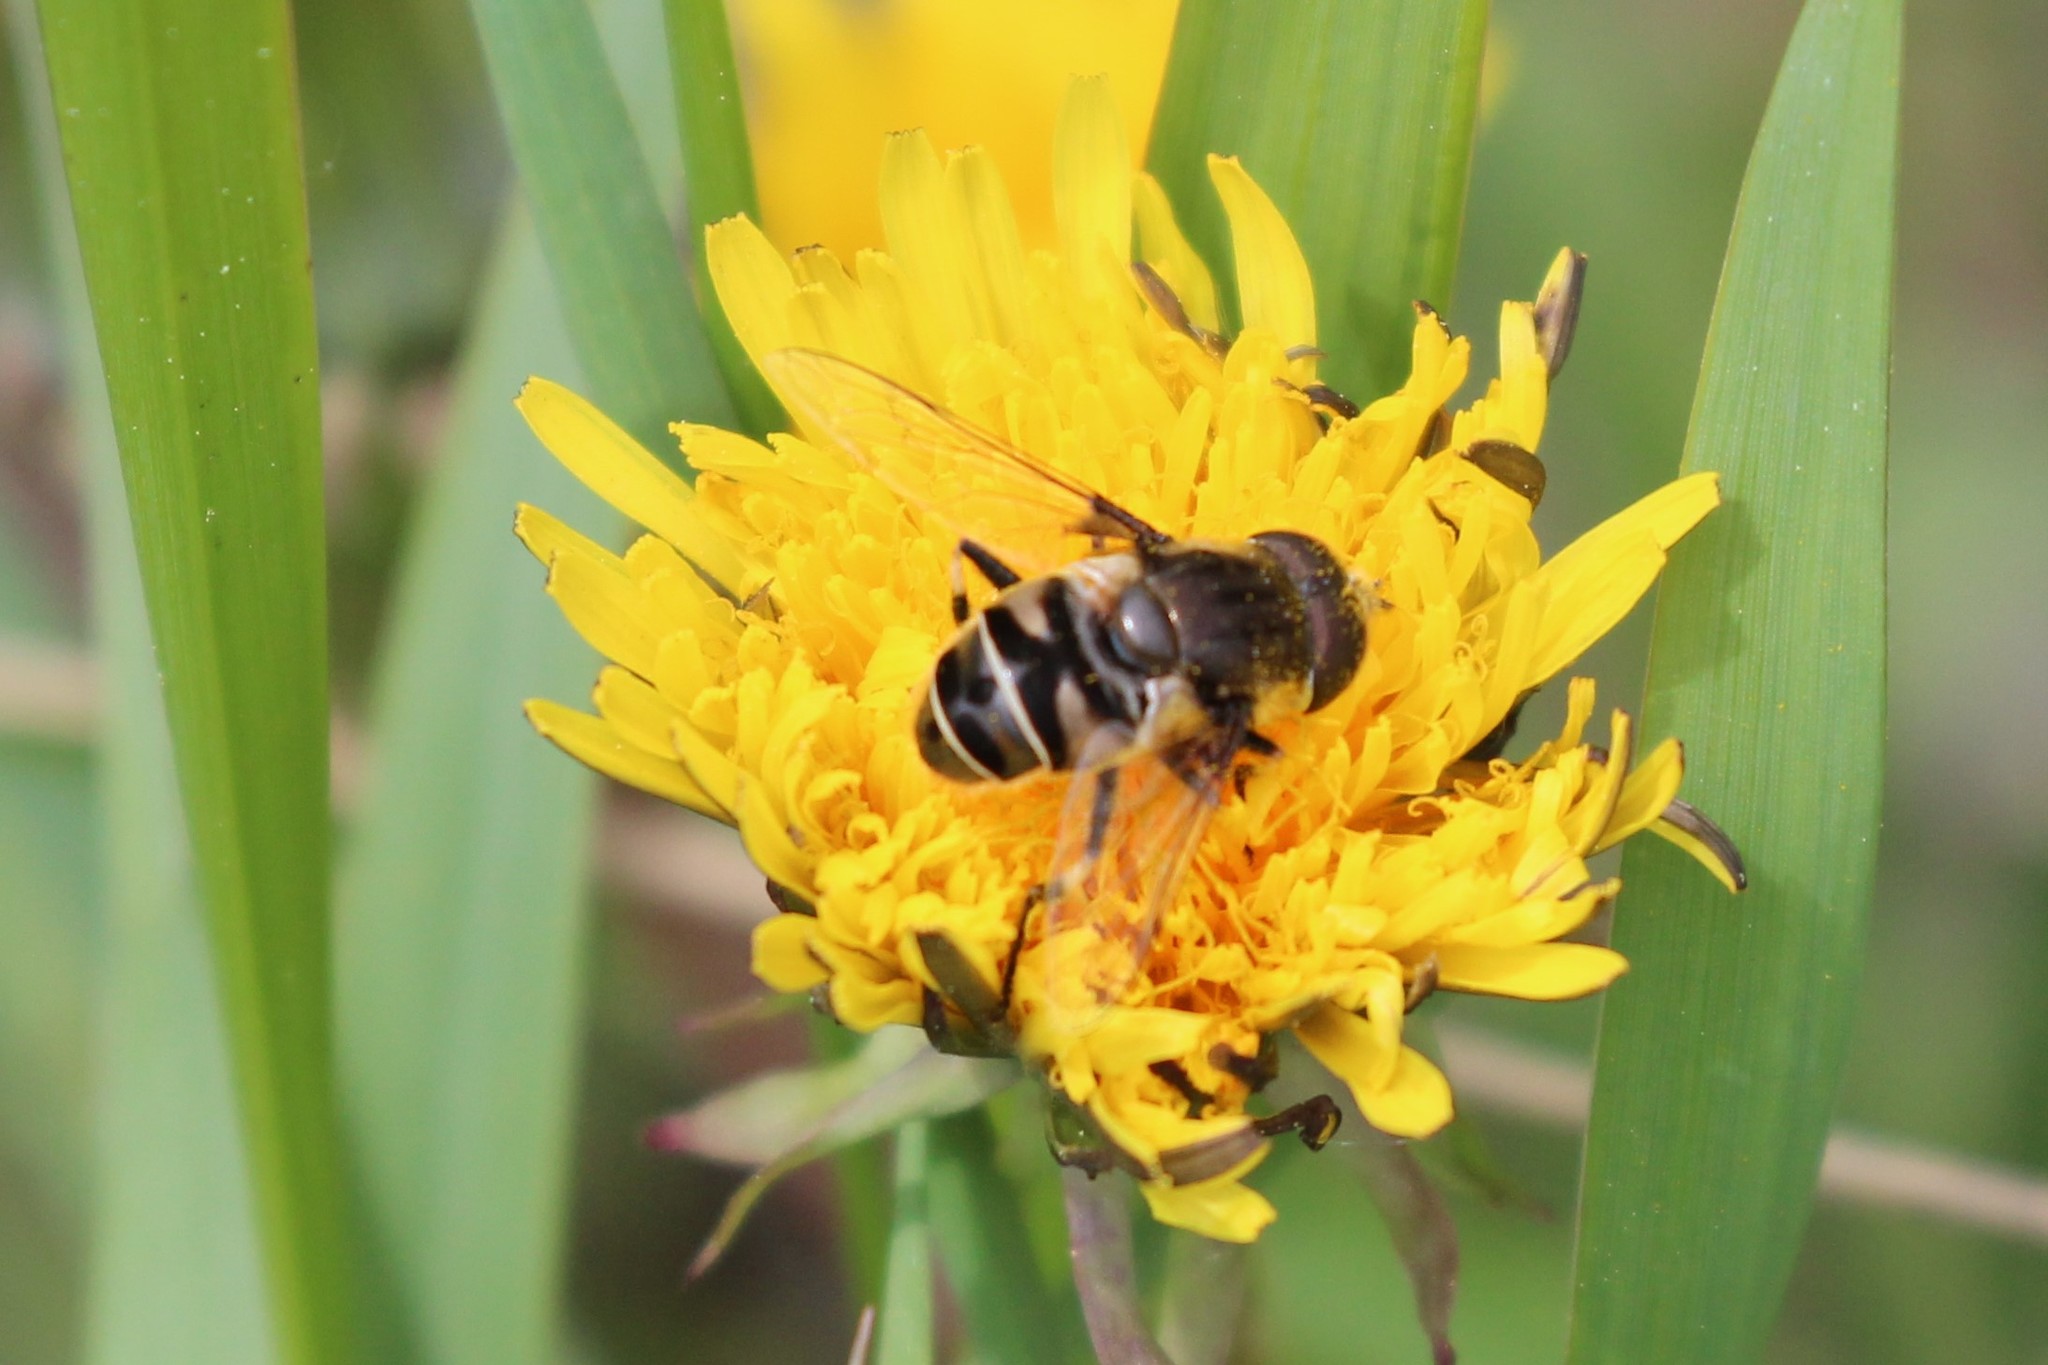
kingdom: Animalia
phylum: Arthropoda
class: Insecta
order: Diptera
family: Syrphidae
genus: Eristalis
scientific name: Eristalis dimidiata
